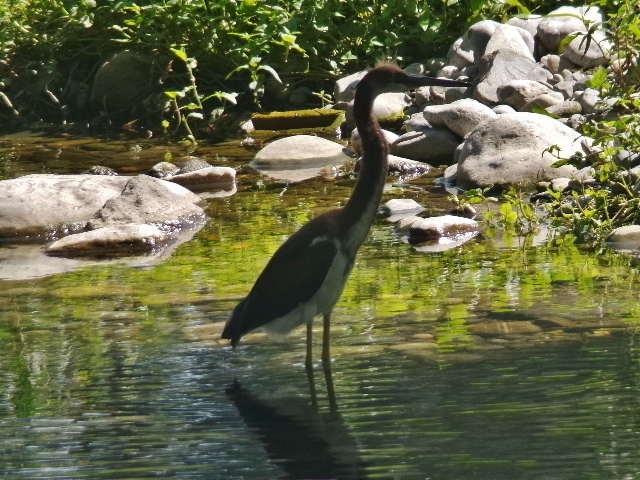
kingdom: Animalia
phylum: Chordata
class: Aves
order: Pelecaniformes
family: Ardeidae
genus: Egretta
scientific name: Egretta tricolor
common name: Tricolored heron
